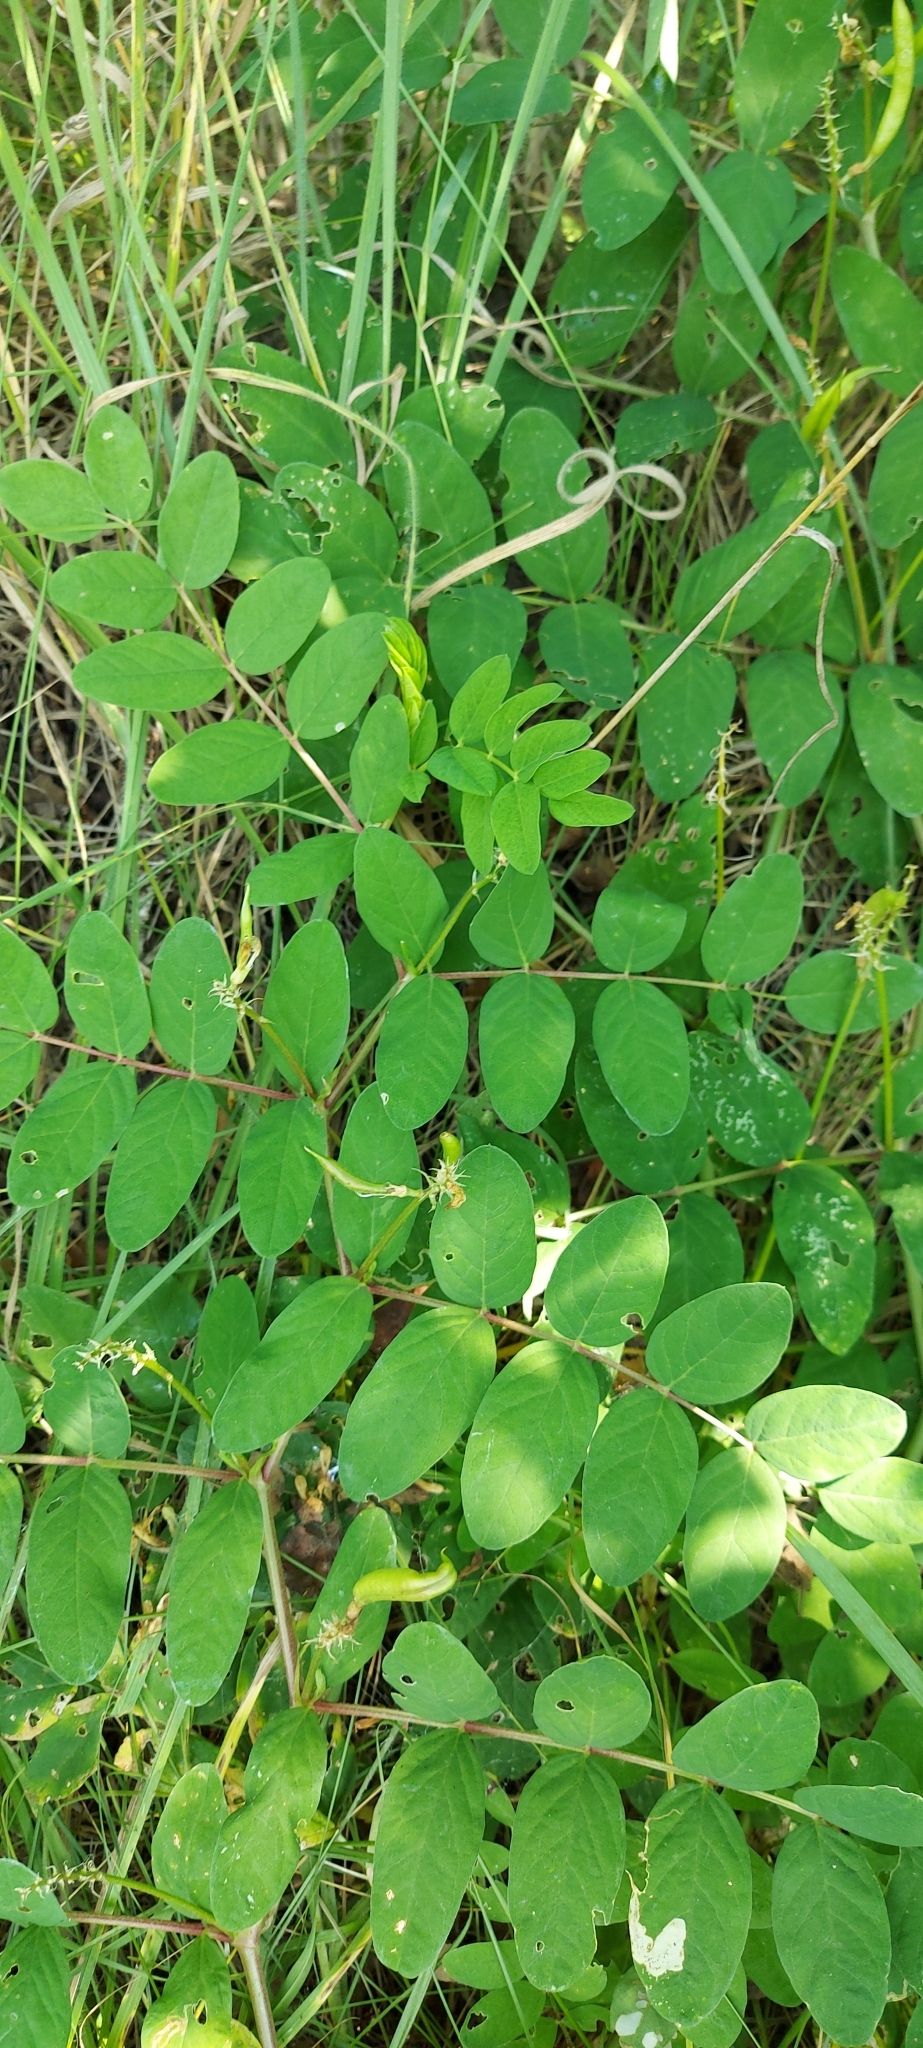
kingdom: Plantae
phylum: Tracheophyta
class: Magnoliopsida
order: Fabales
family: Fabaceae
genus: Astragalus
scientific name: Astragalus glycyphyllos
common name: Wild liquorice
